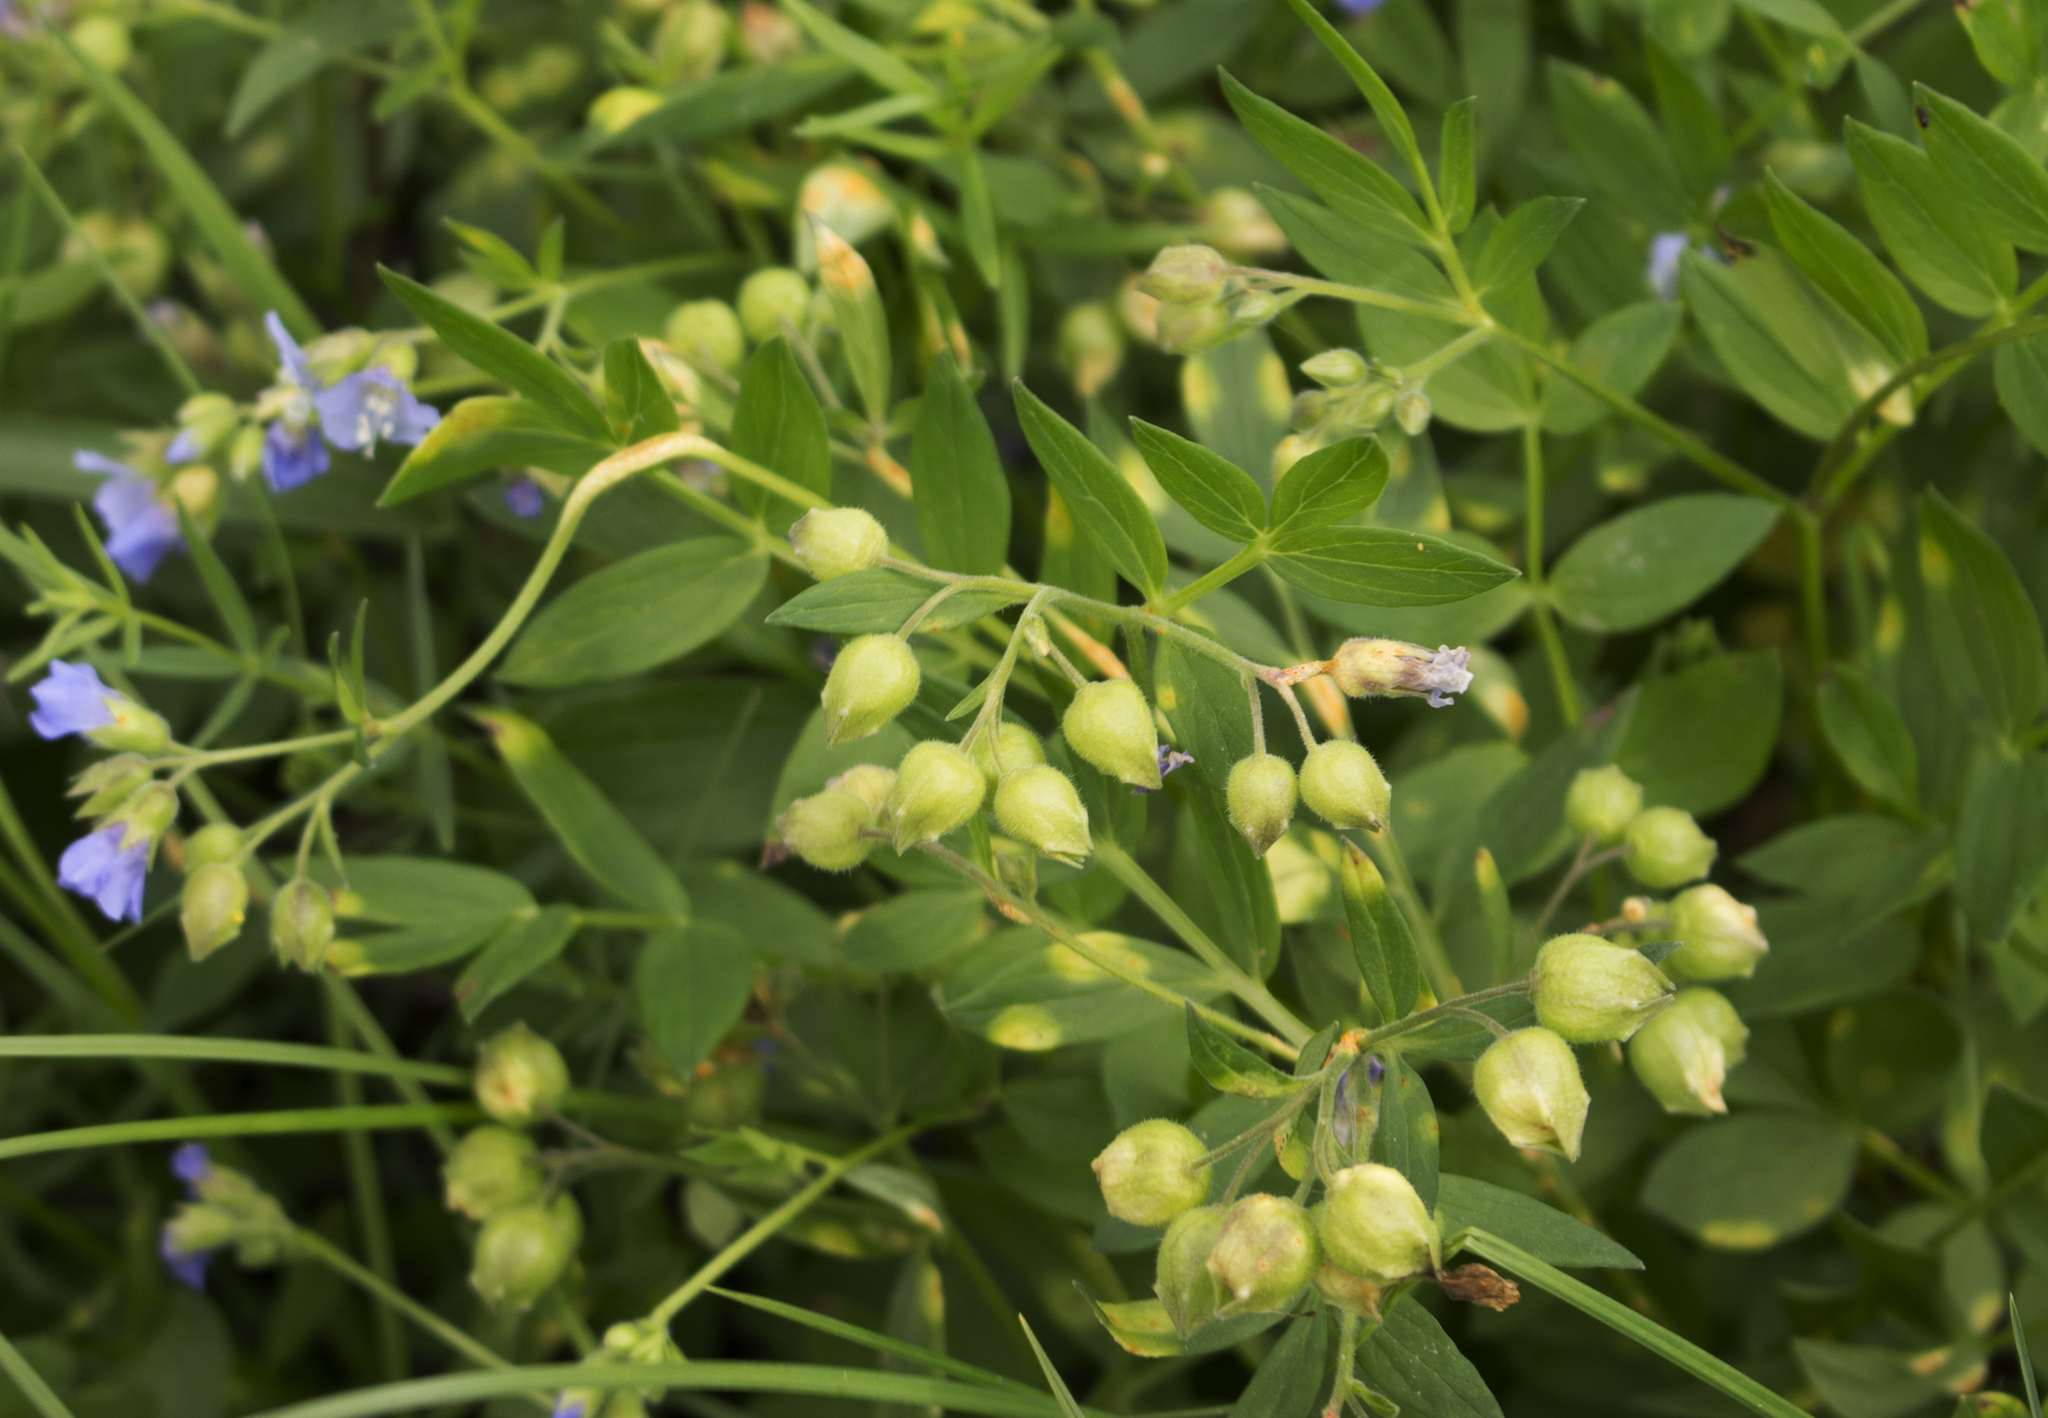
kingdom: Plantae
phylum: Tracheophyta
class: Magnoliopsida
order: Ericales
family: Polemoniaceae
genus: Polemonium
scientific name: Polemonium reptans
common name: Creeping jacob's-ladder
